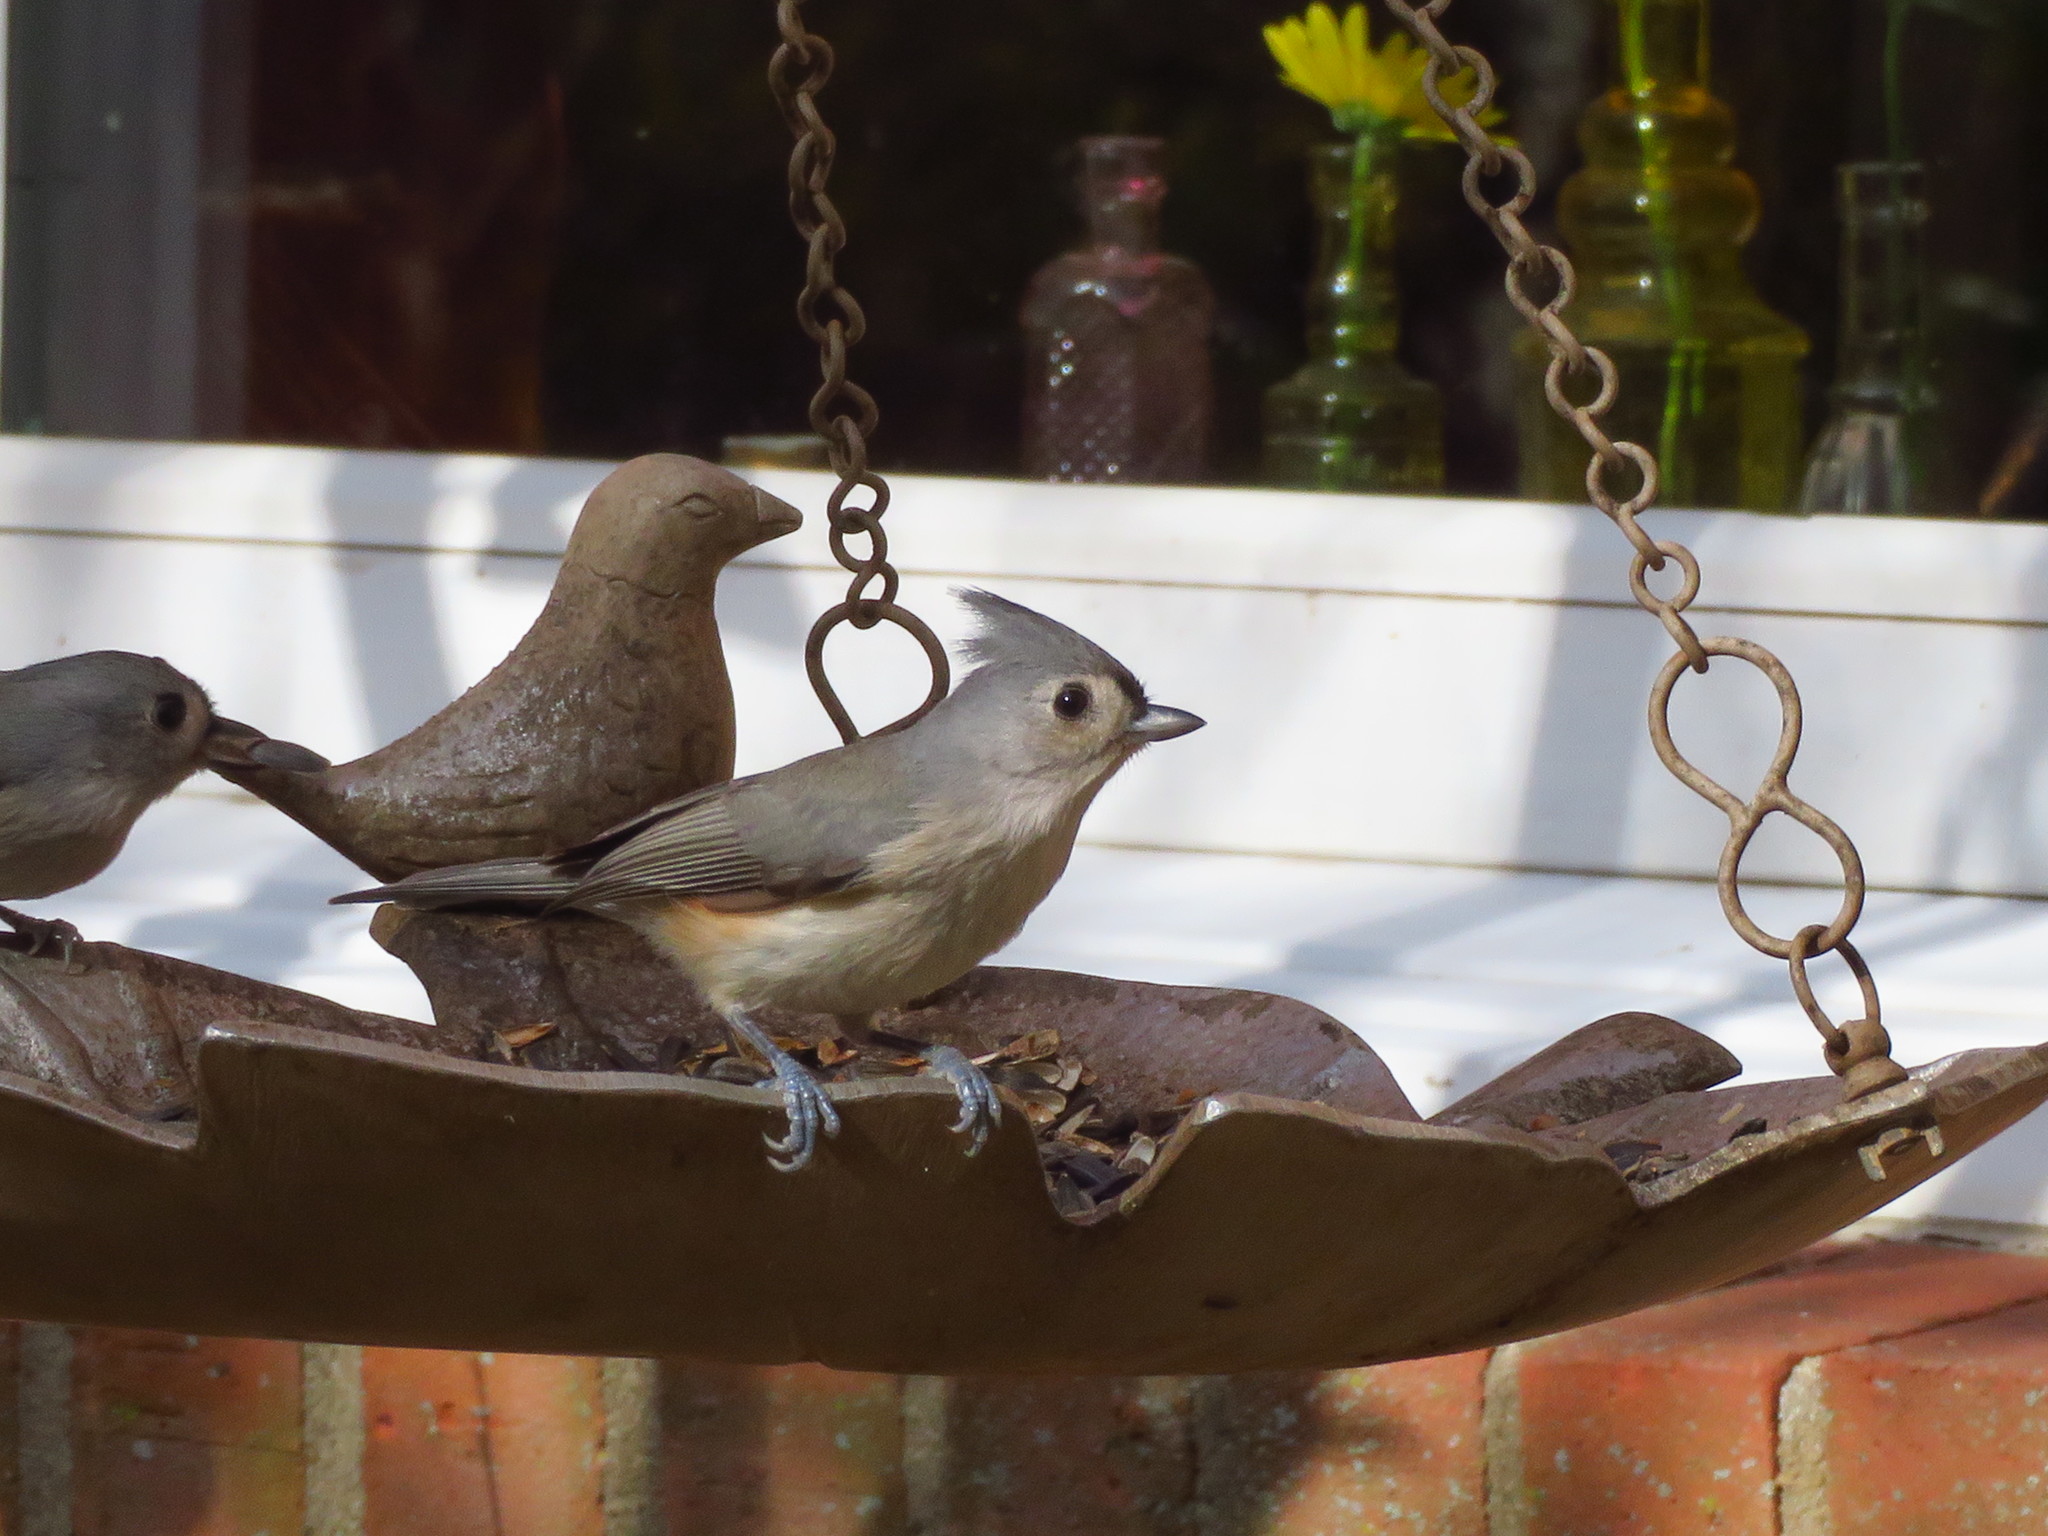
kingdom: Animalia
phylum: Chordata
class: Aves
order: Passeriformes
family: Paridae
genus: Baeolophus
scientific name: Baeolophus bicolor
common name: Tufted titmouse
